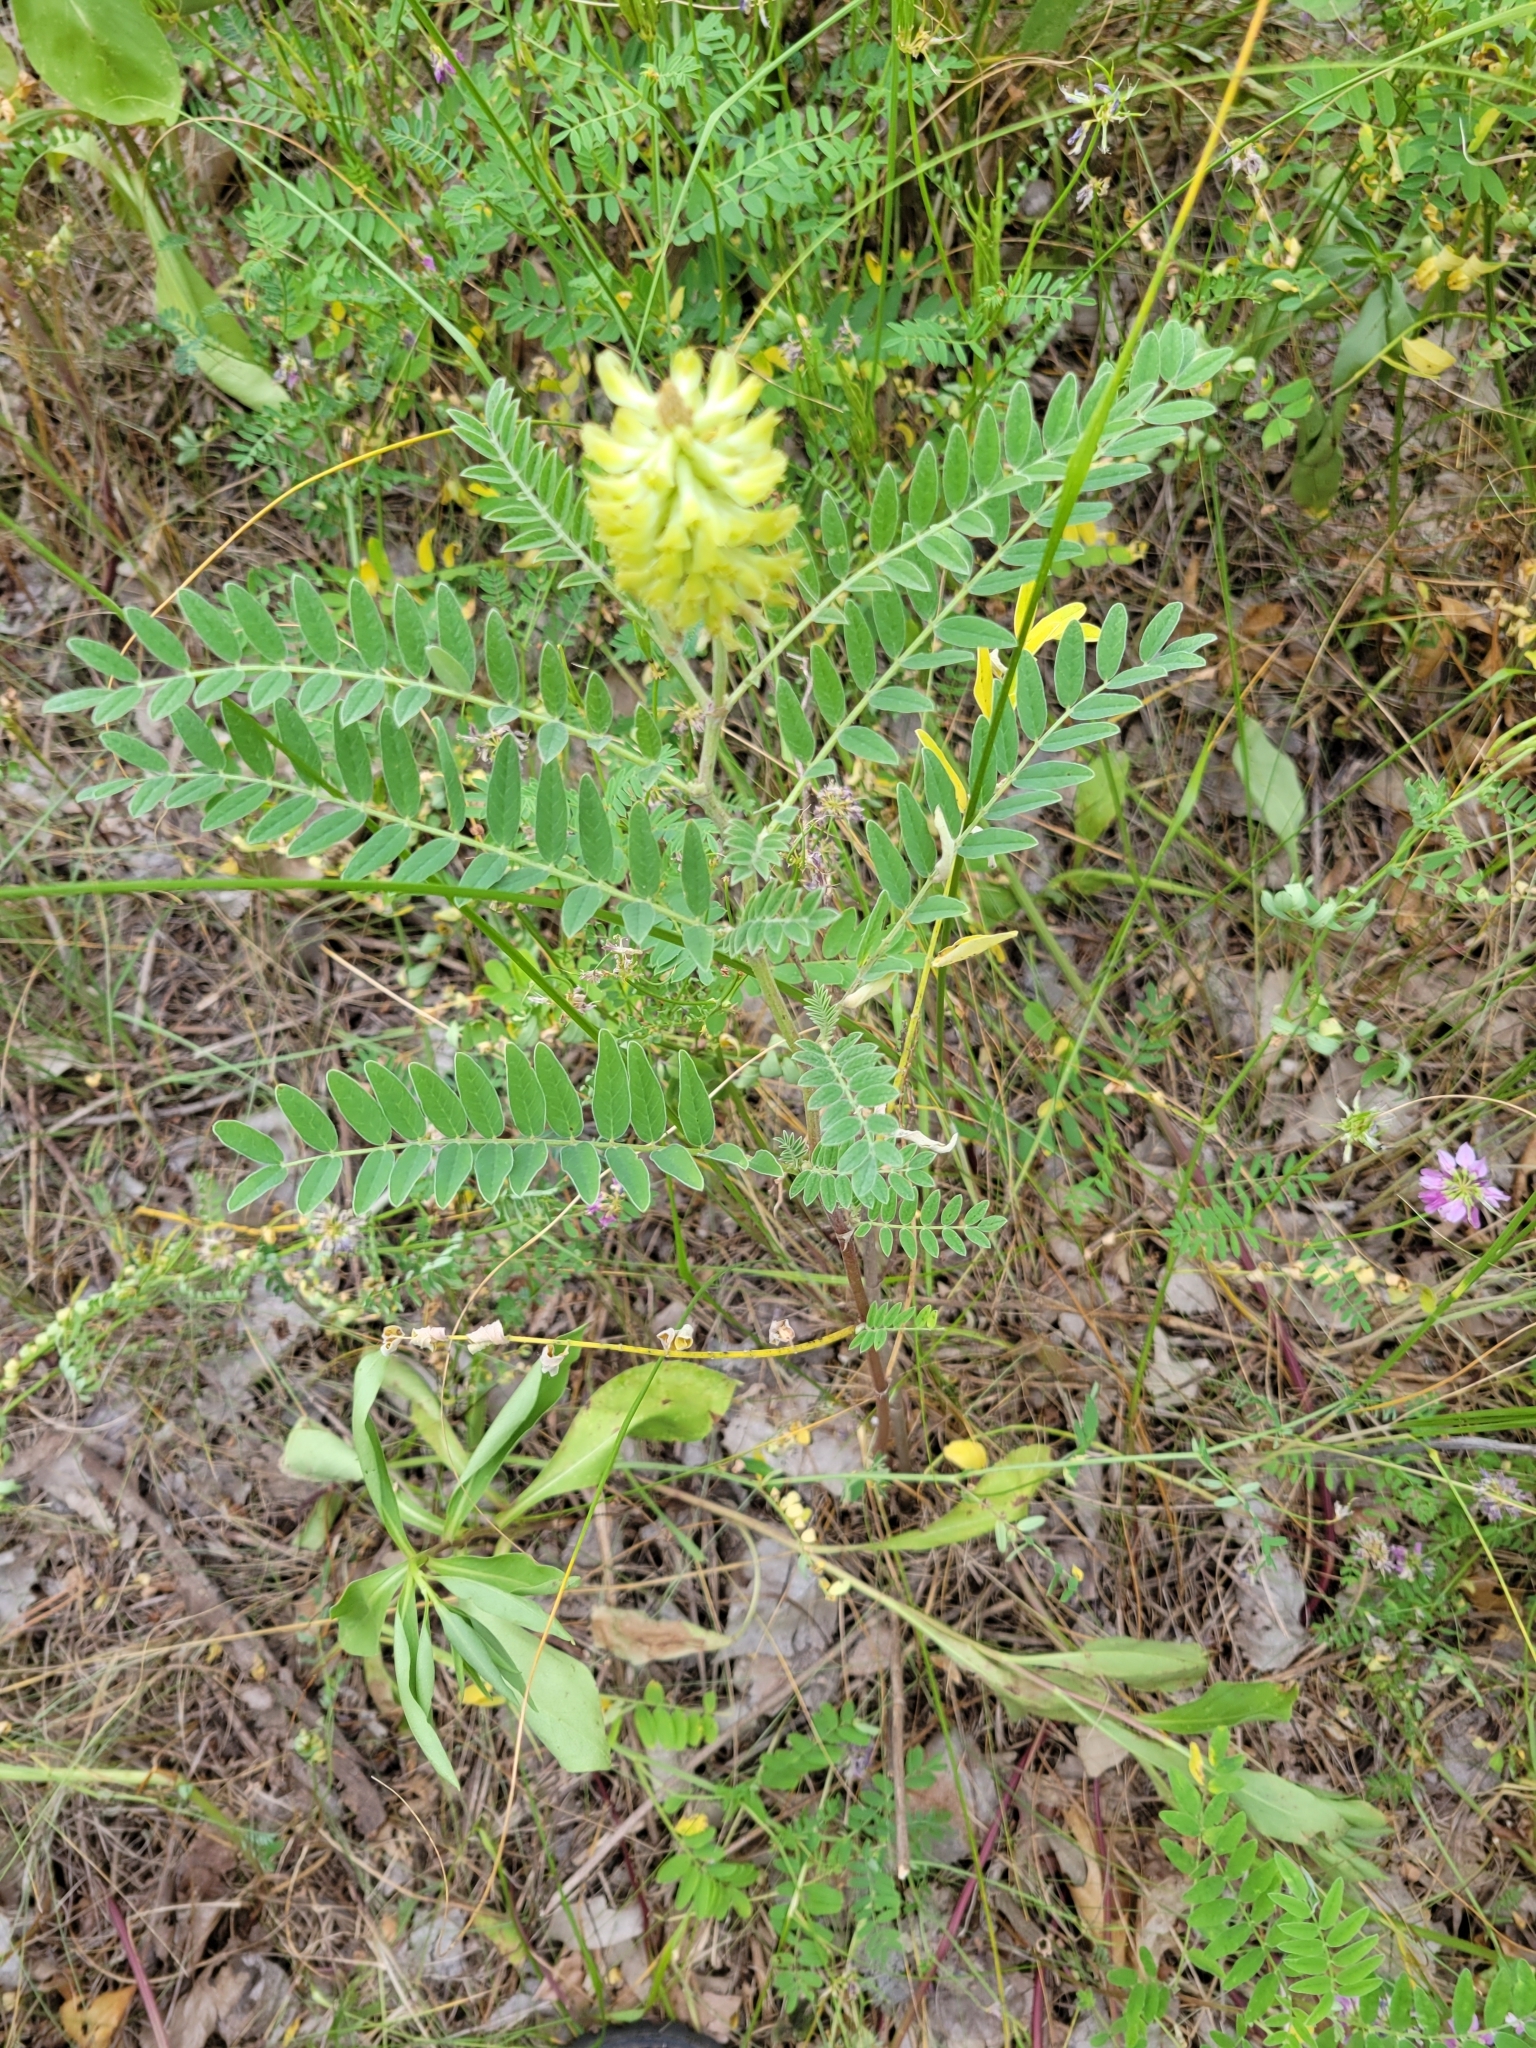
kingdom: Plantae
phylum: Tracheophyta
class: Magnoliopsida
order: Fabales
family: Fabaceae
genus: Astragalus
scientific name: Astragalus canadensis
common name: Canada milk-vetch
